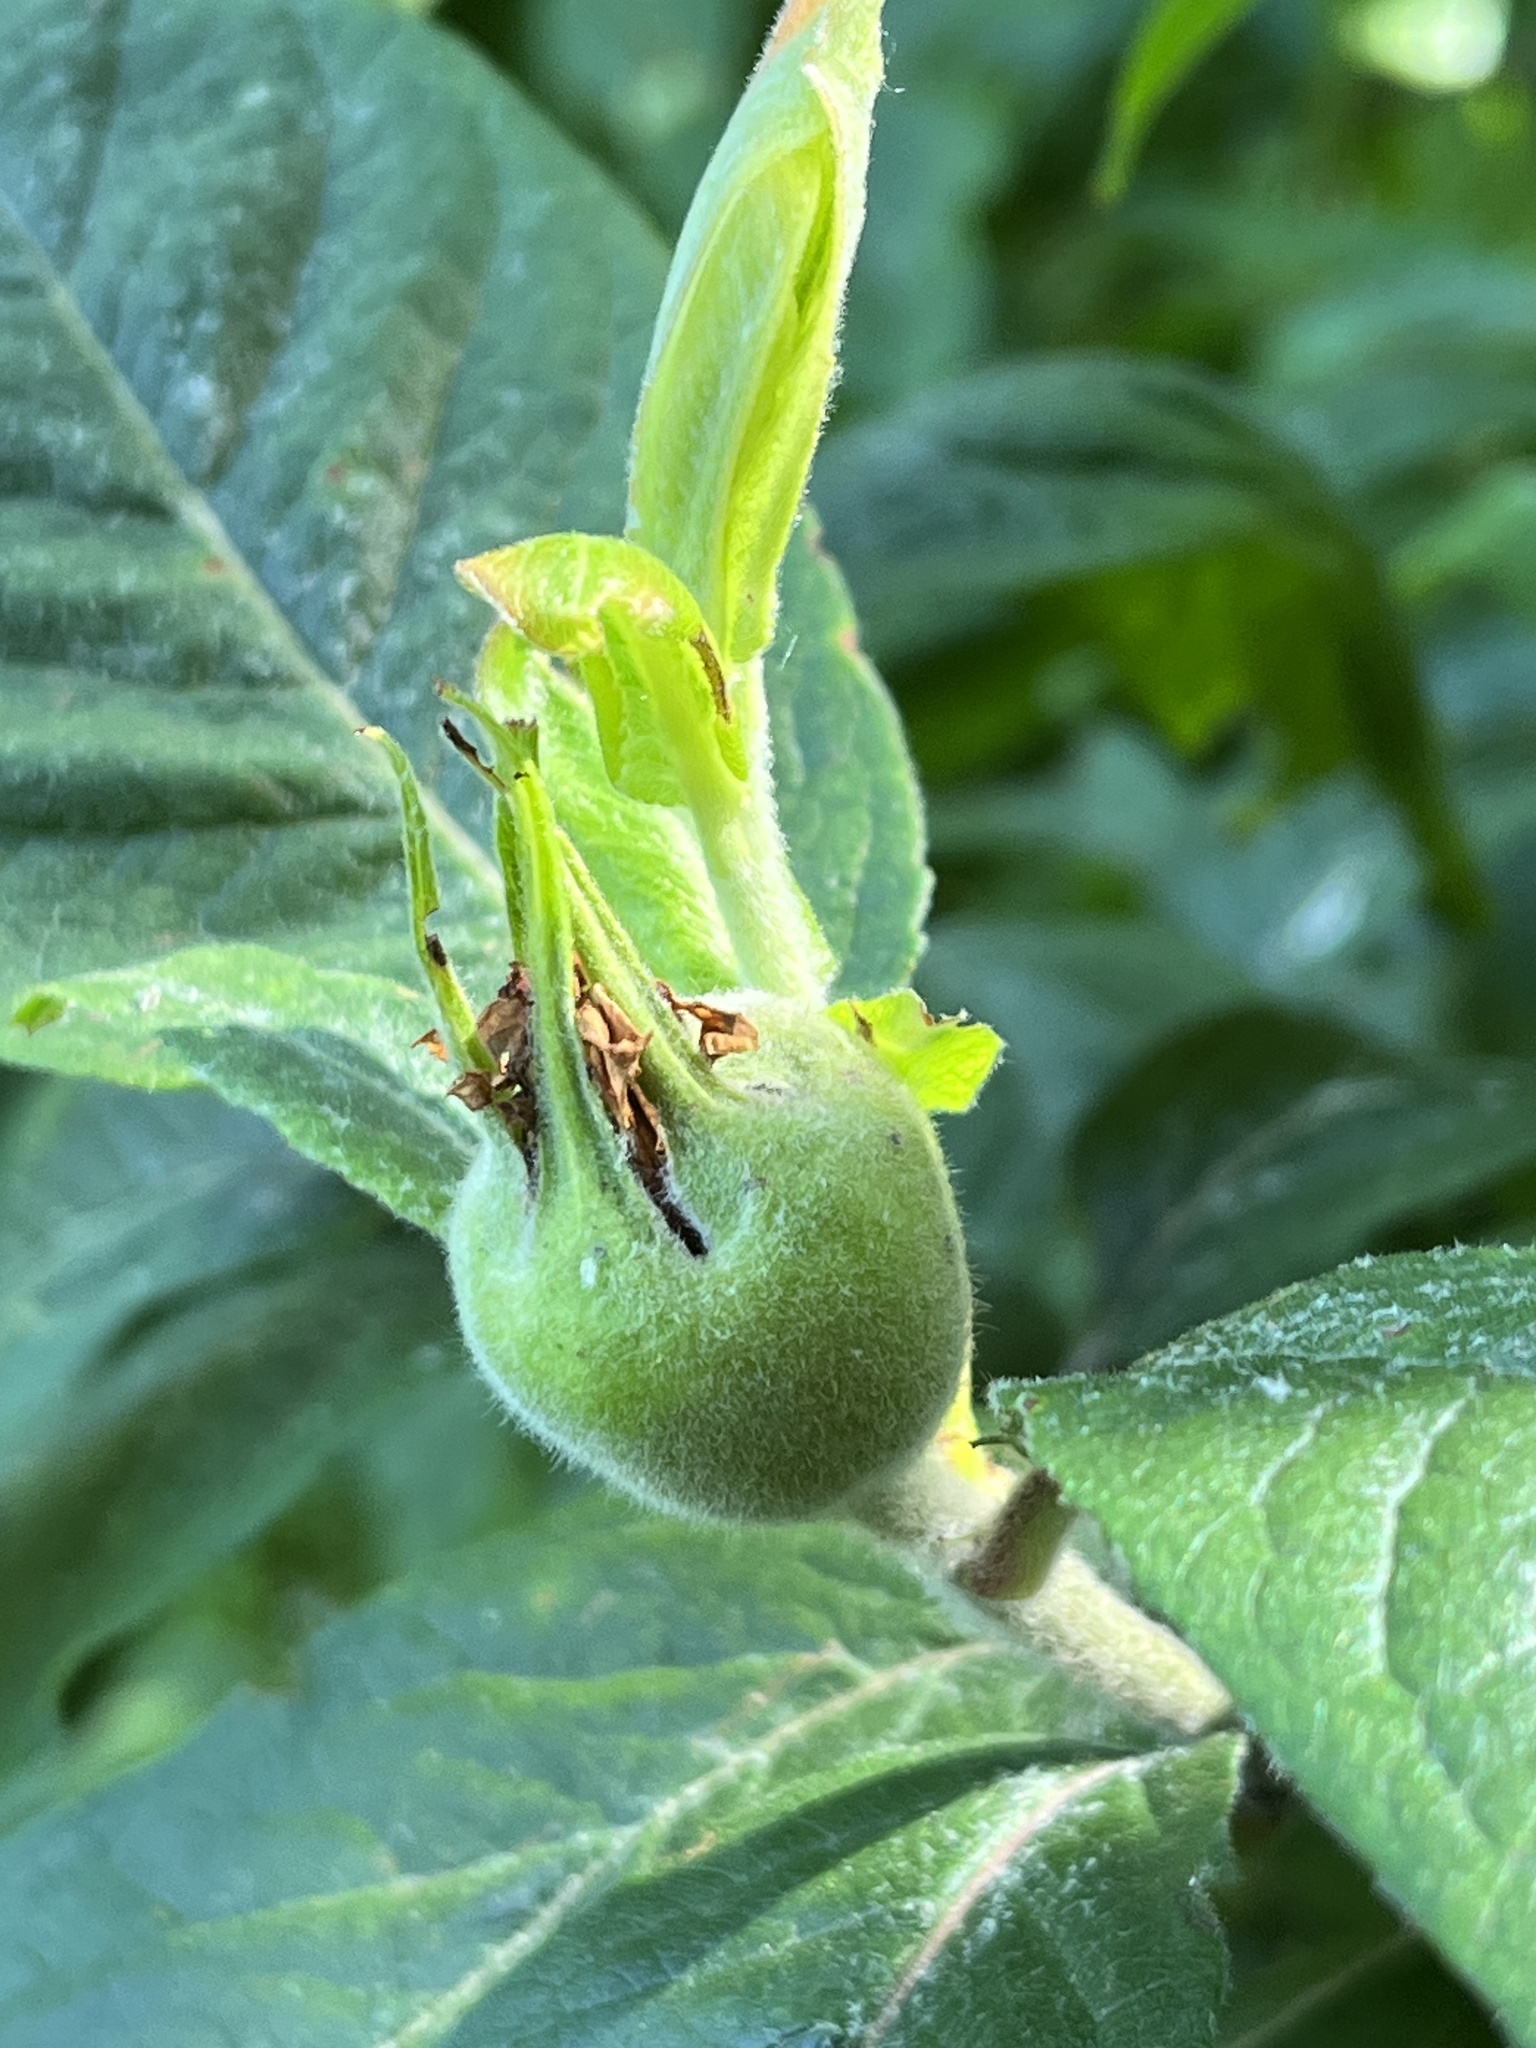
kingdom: Plantae
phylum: Tracheophyta
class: Magnoliopsida
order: Rosales
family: Rosaceae
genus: Mespilus
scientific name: Mespilus germanica
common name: Medlar
